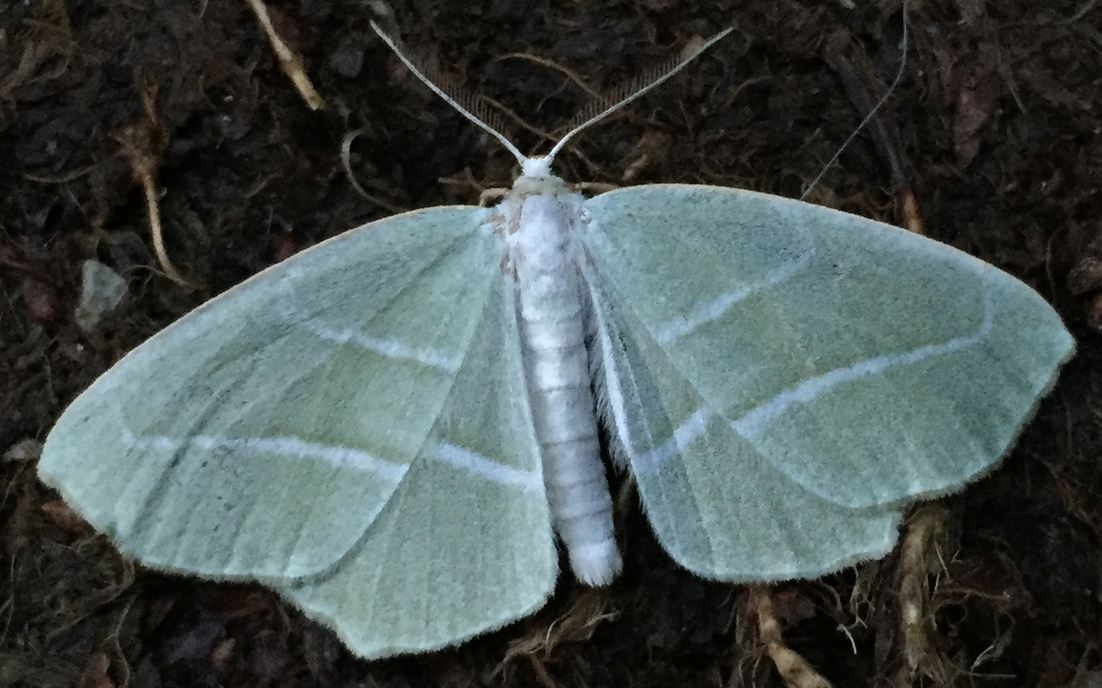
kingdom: Animalia
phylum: Arthropoda
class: Insecta
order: Lepidoptera
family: Geometridae
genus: Campaea
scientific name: Campaea perlata
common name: Fringed looper
